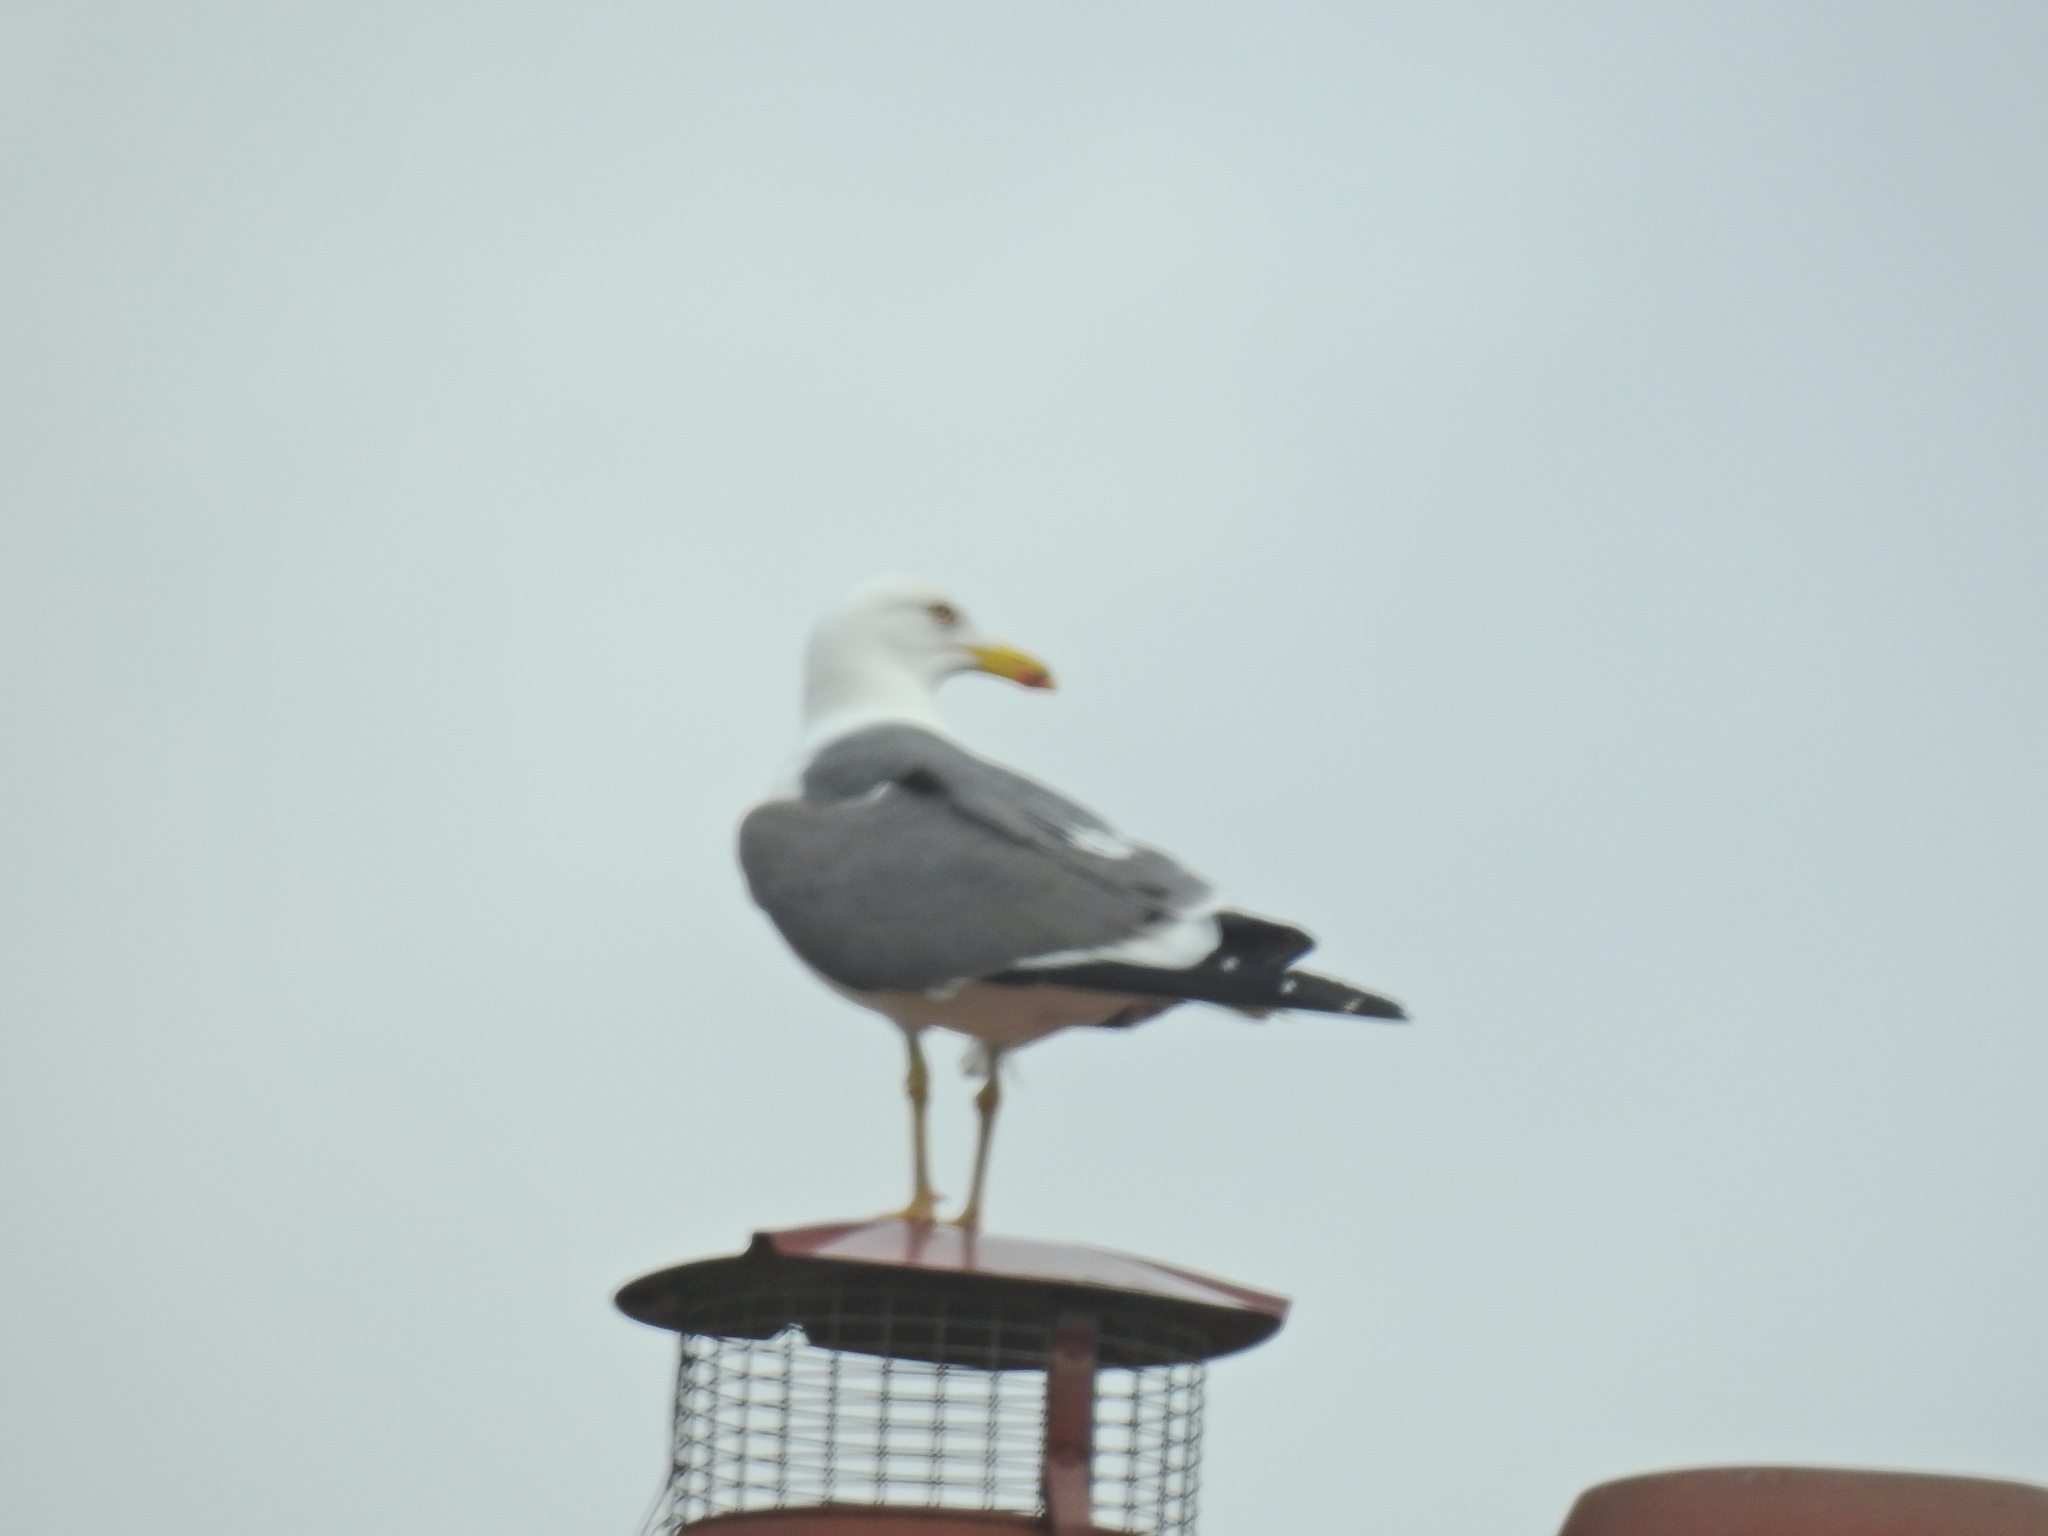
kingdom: Animalia
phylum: Chordata
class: Aves
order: Charadriiformes
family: Laridae
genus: Larus
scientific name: Larus fuscus
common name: Lesser black-backed gull
